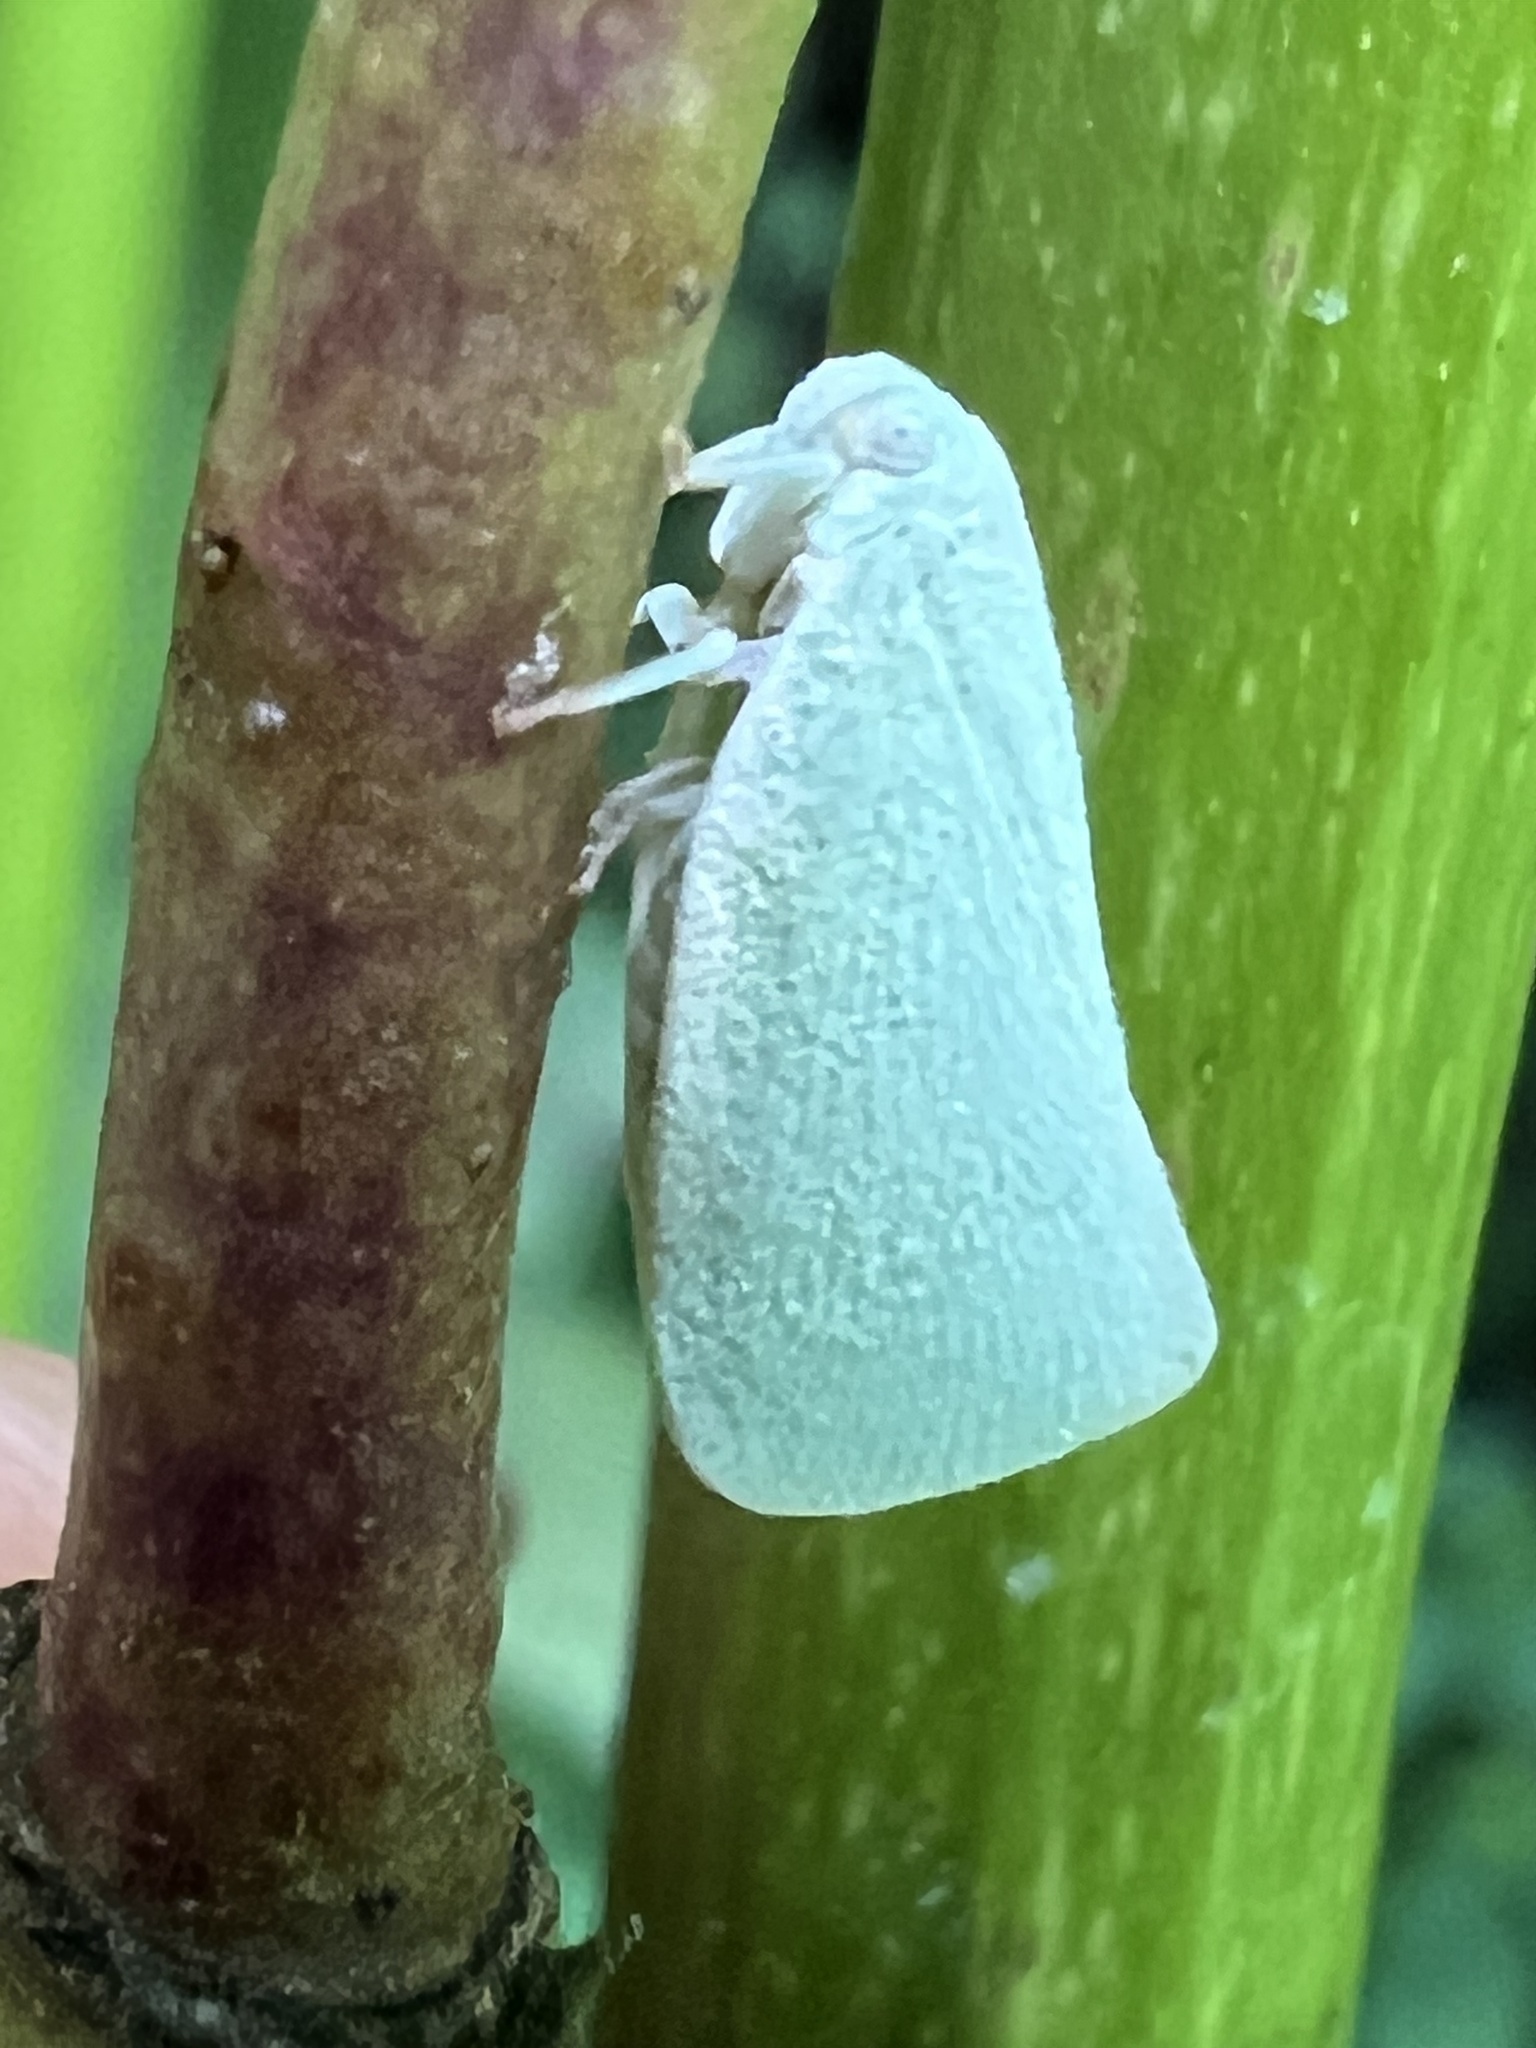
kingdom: Animalia
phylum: Arthropoda
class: Insecta
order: Hemiptera
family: Flatidae
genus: Flatormenis
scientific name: Flatormenis proxima
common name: Northern flatid planthopper
